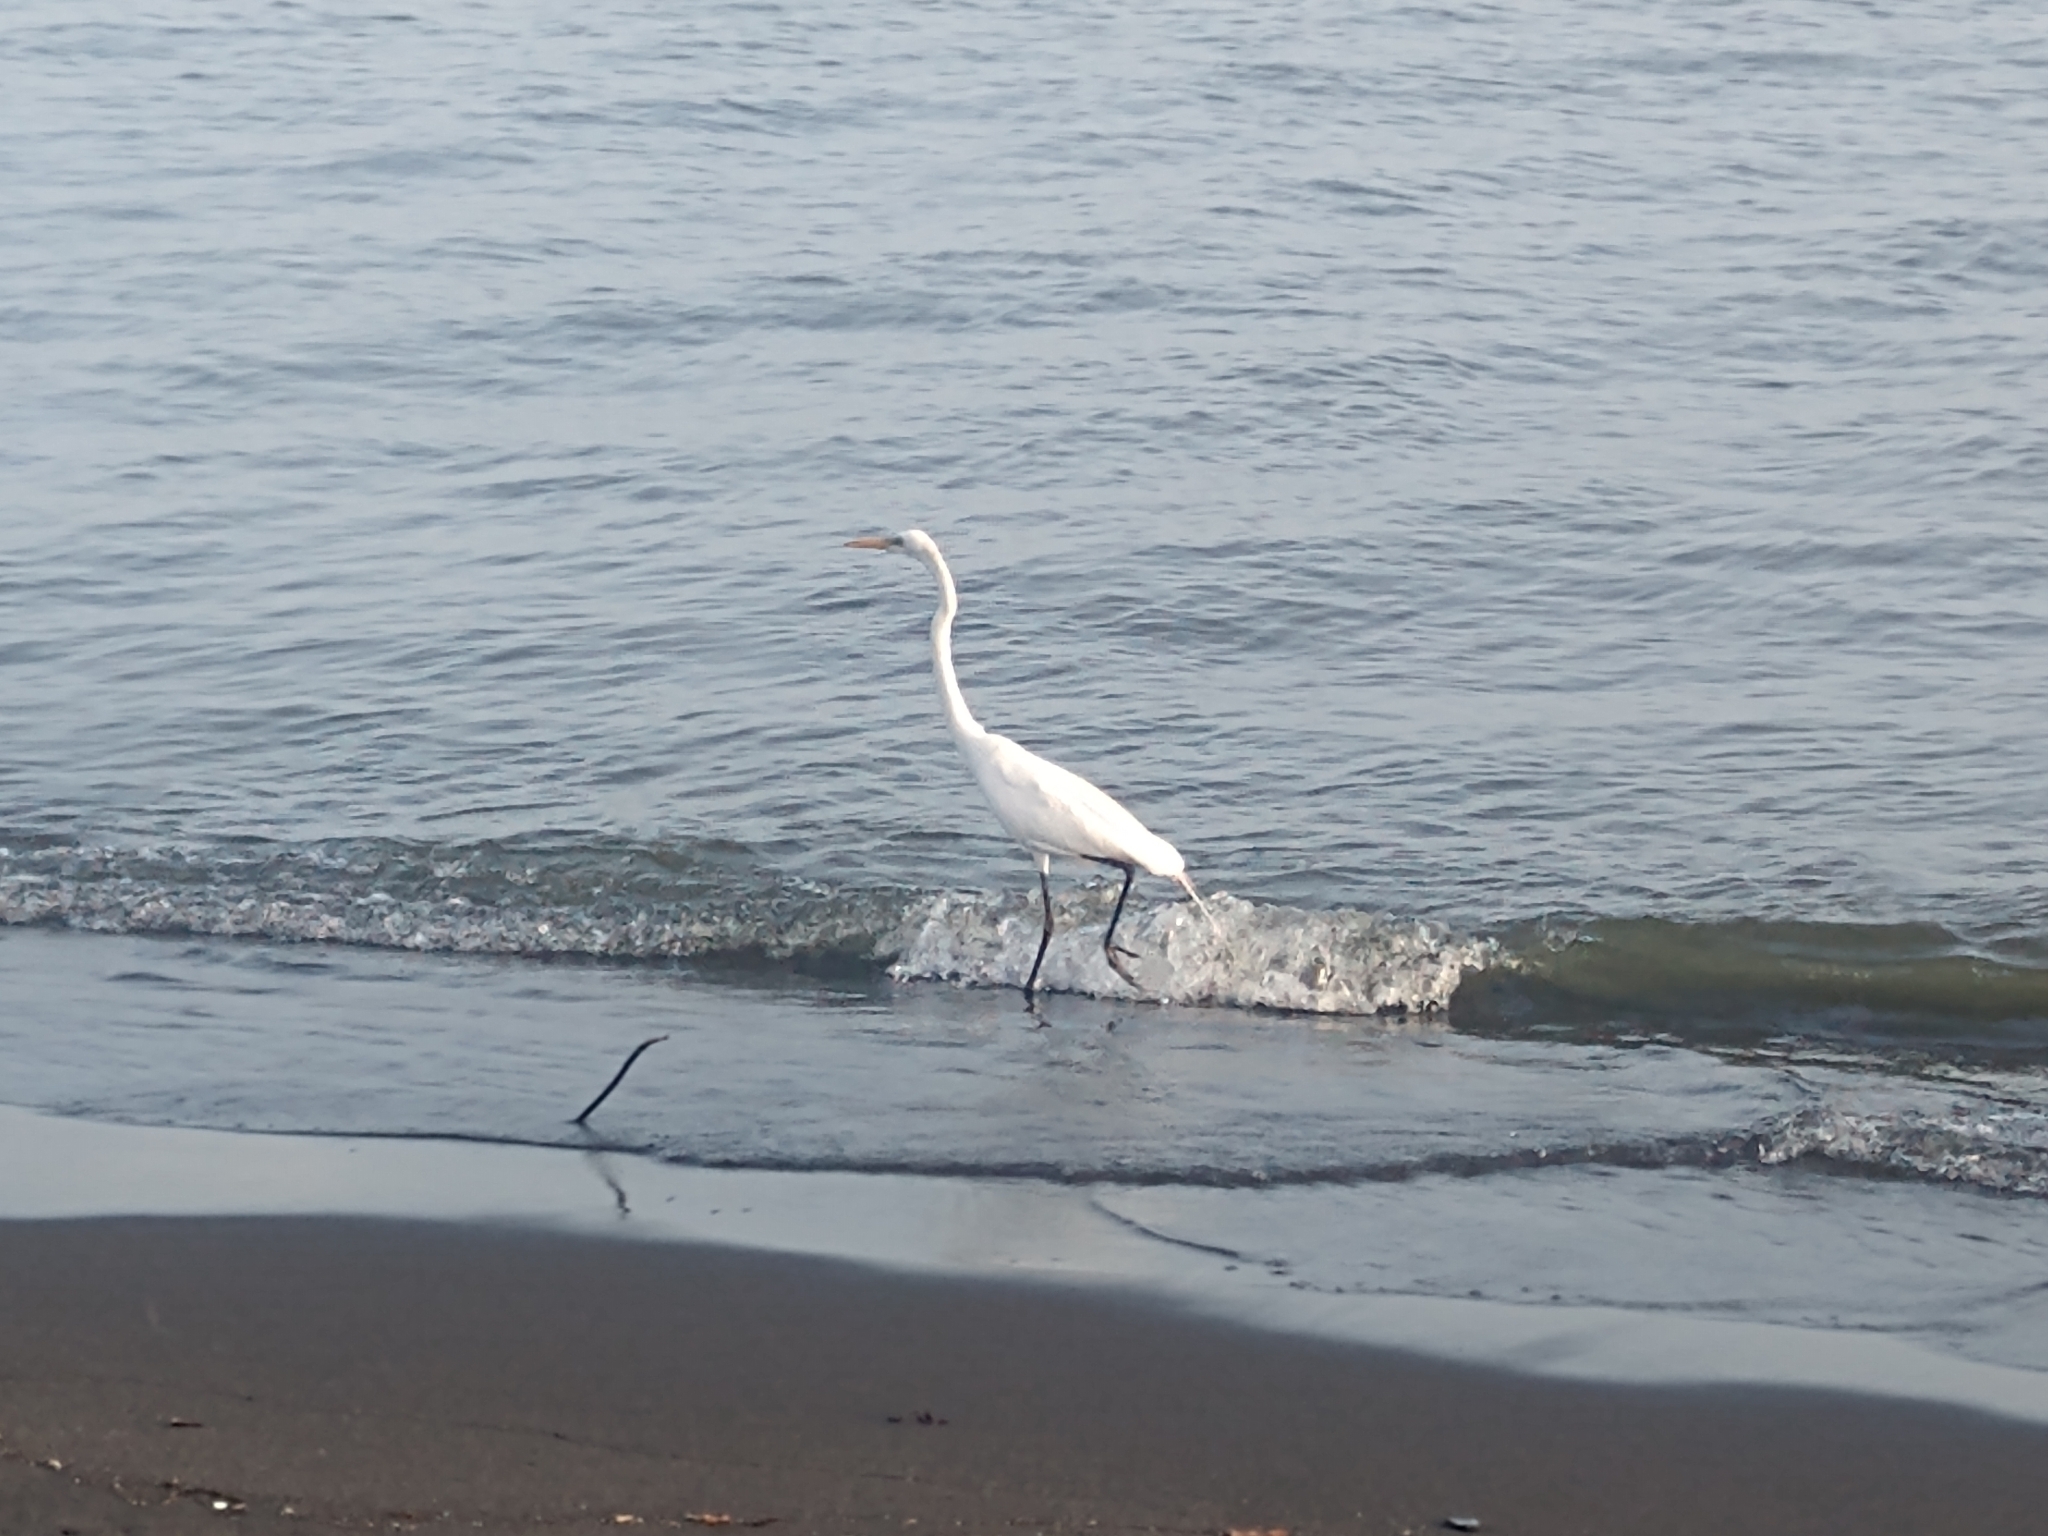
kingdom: Animalia
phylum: Chordata
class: Aves
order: Pelecaniformes
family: Ardeidae
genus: Ardea
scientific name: Ardea alba
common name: Great egret
